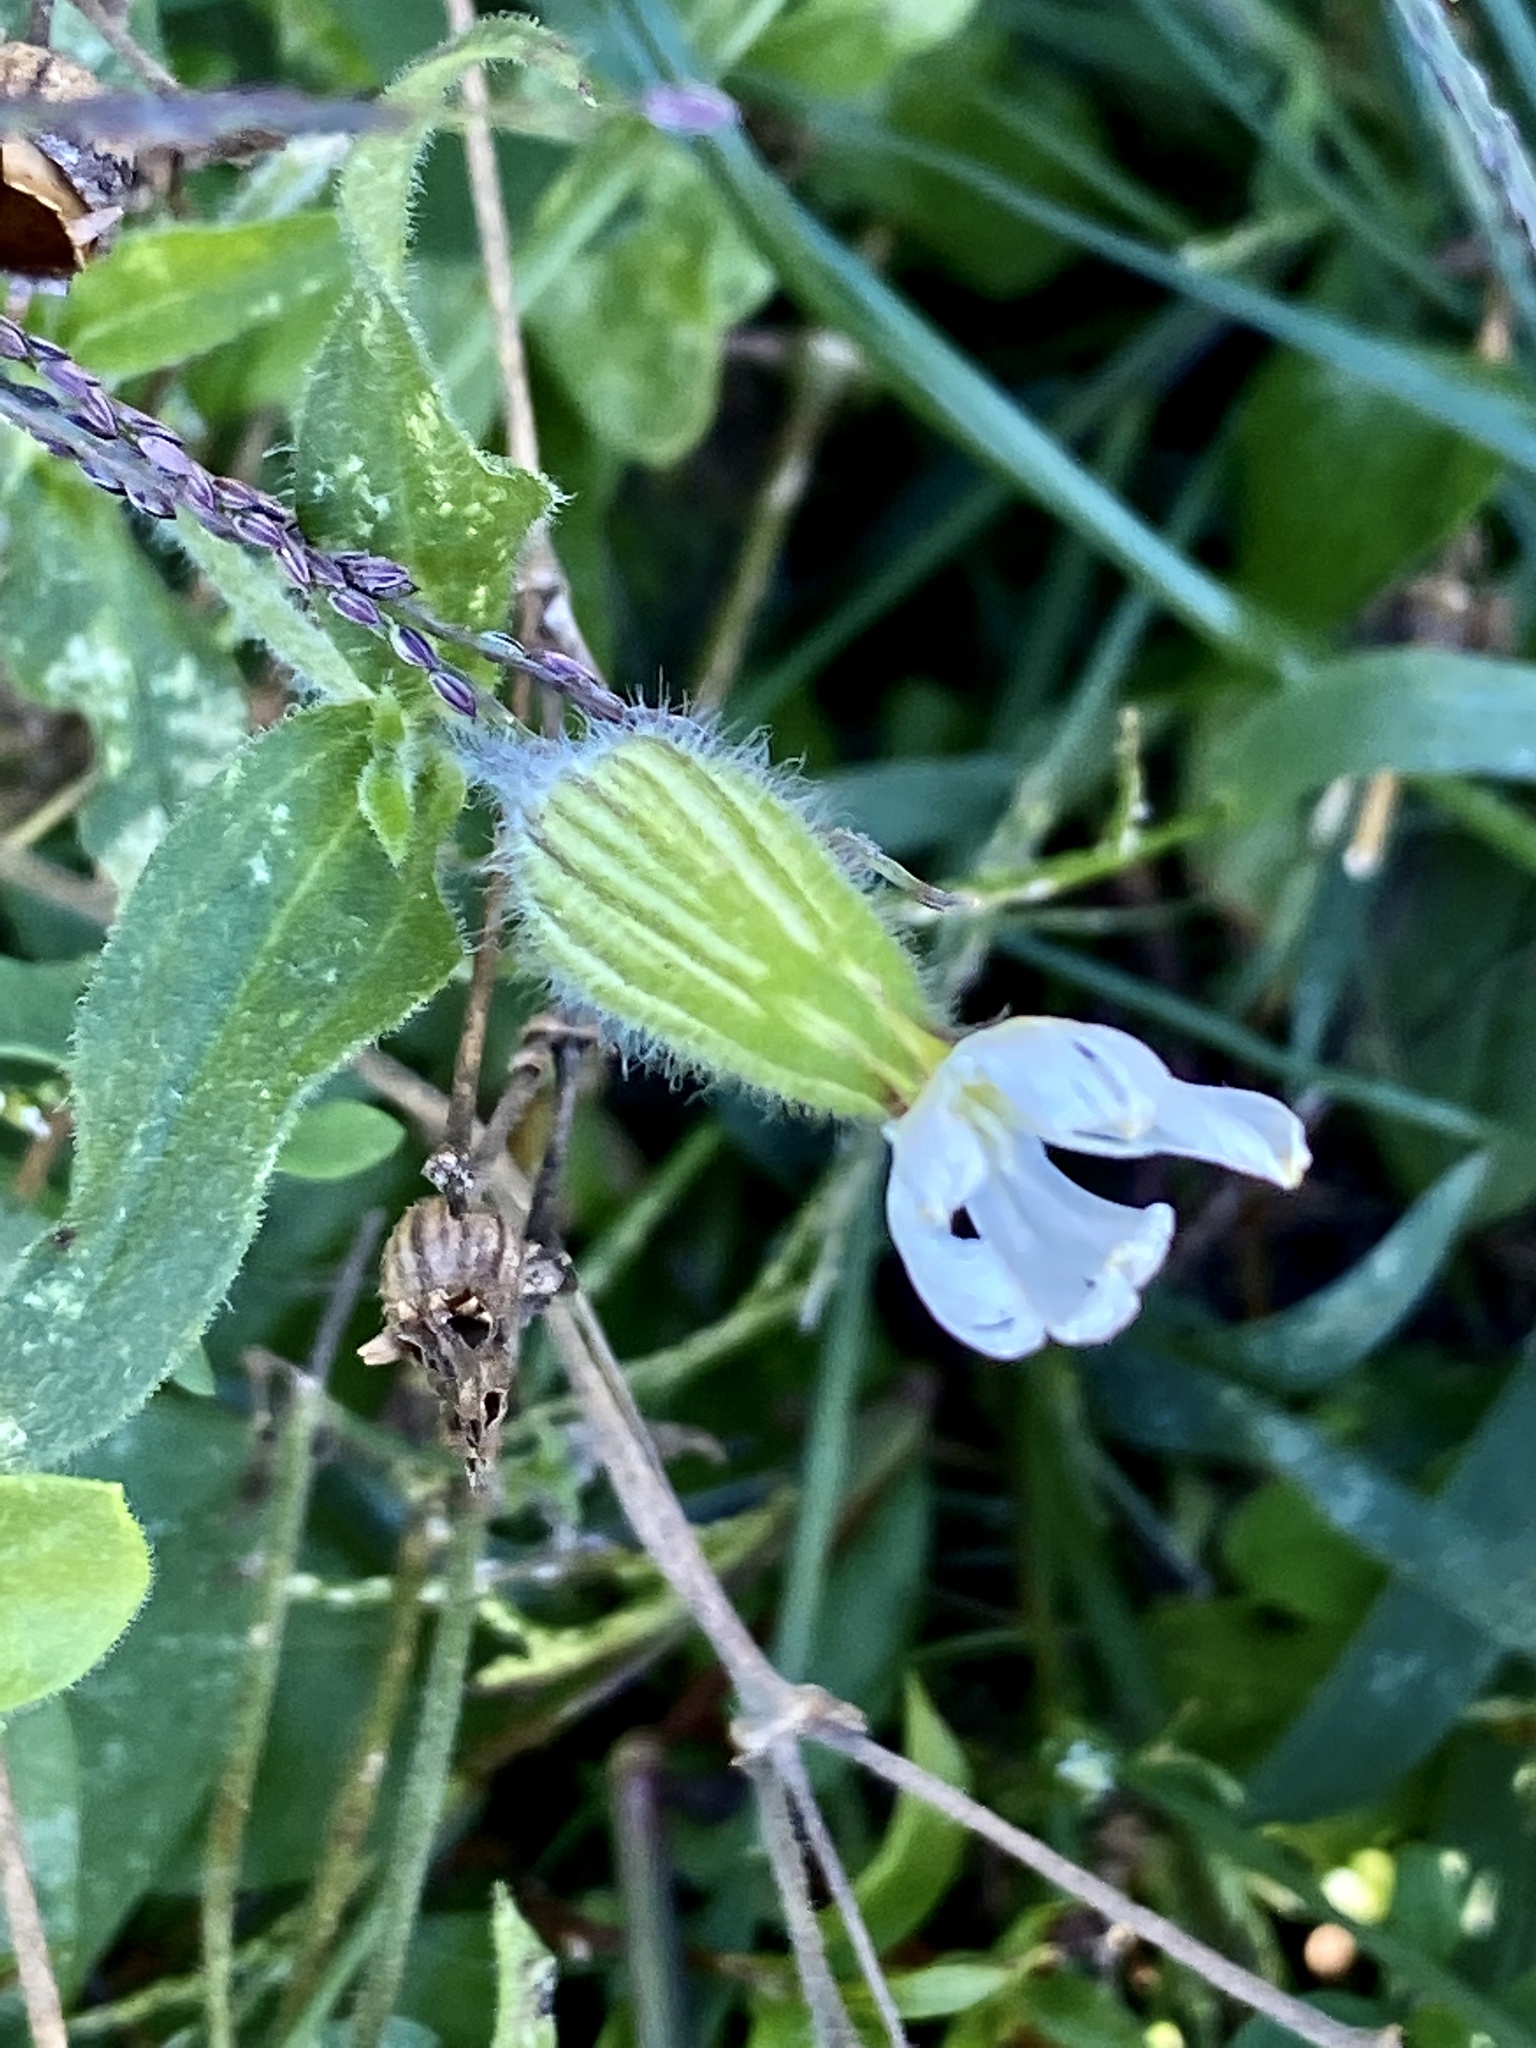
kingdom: Plantae
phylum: Tracheophyta
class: Magnoliopsida
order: Caryophyllales
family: Caryophyllaceae
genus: Silene
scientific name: Silene latifolia
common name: White campion
